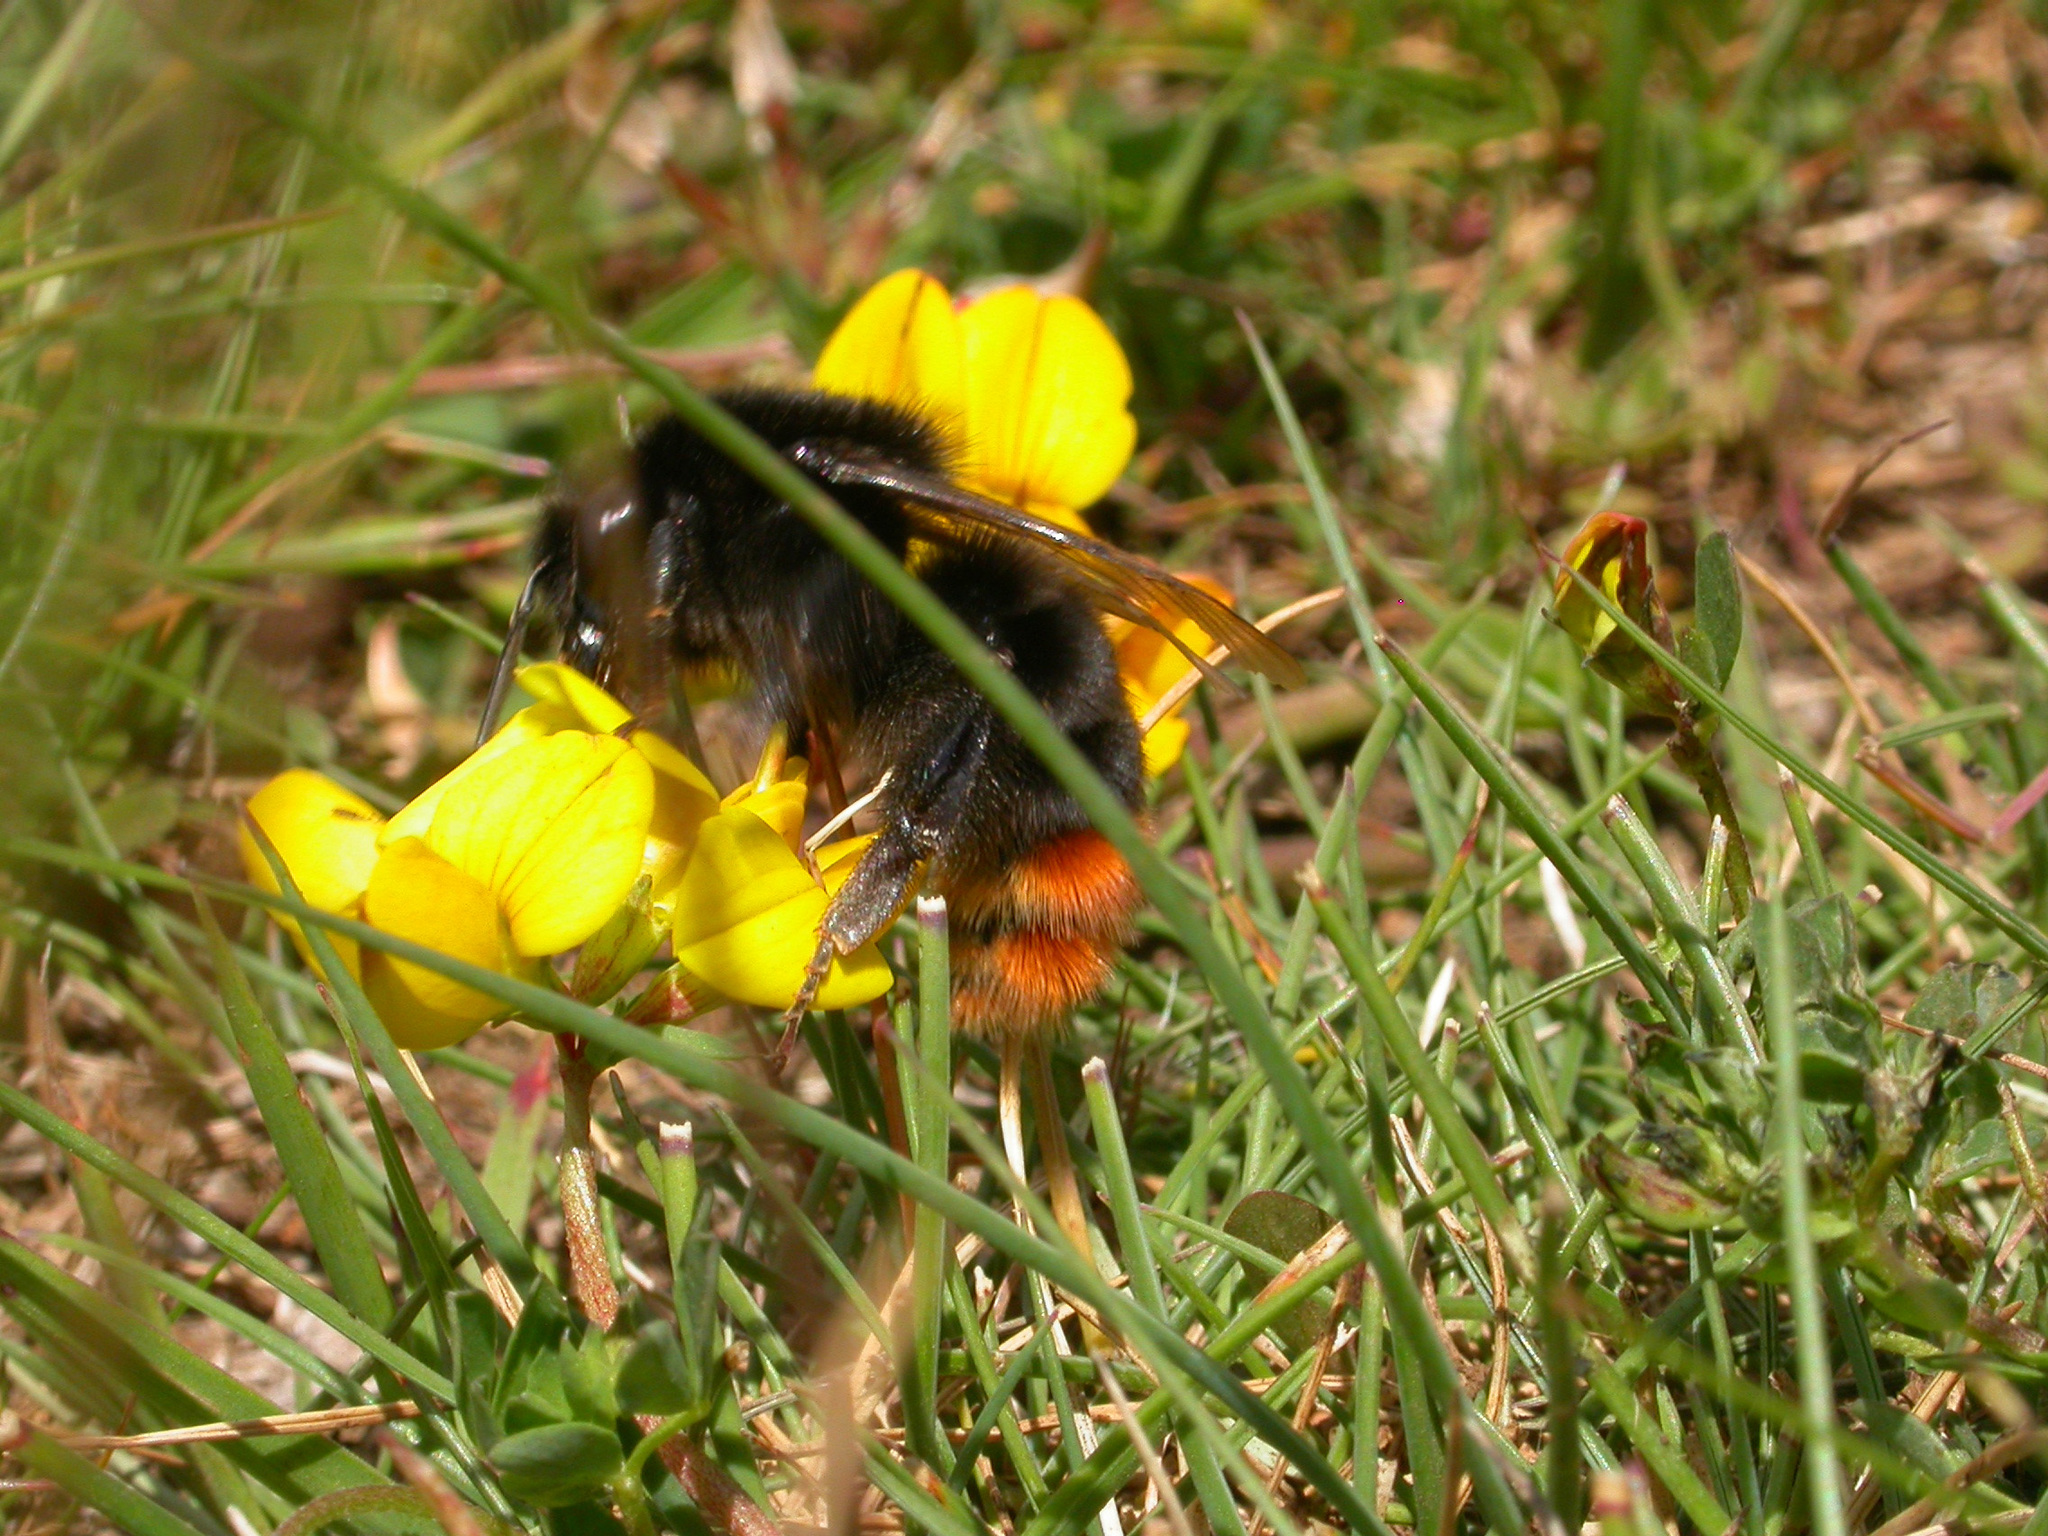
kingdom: Animalia
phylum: Arthropoda
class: Insecta
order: Hymenoptera
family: Apidae
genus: Bombus
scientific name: Bombus lapidarius
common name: Large red-tailed humble-bee
